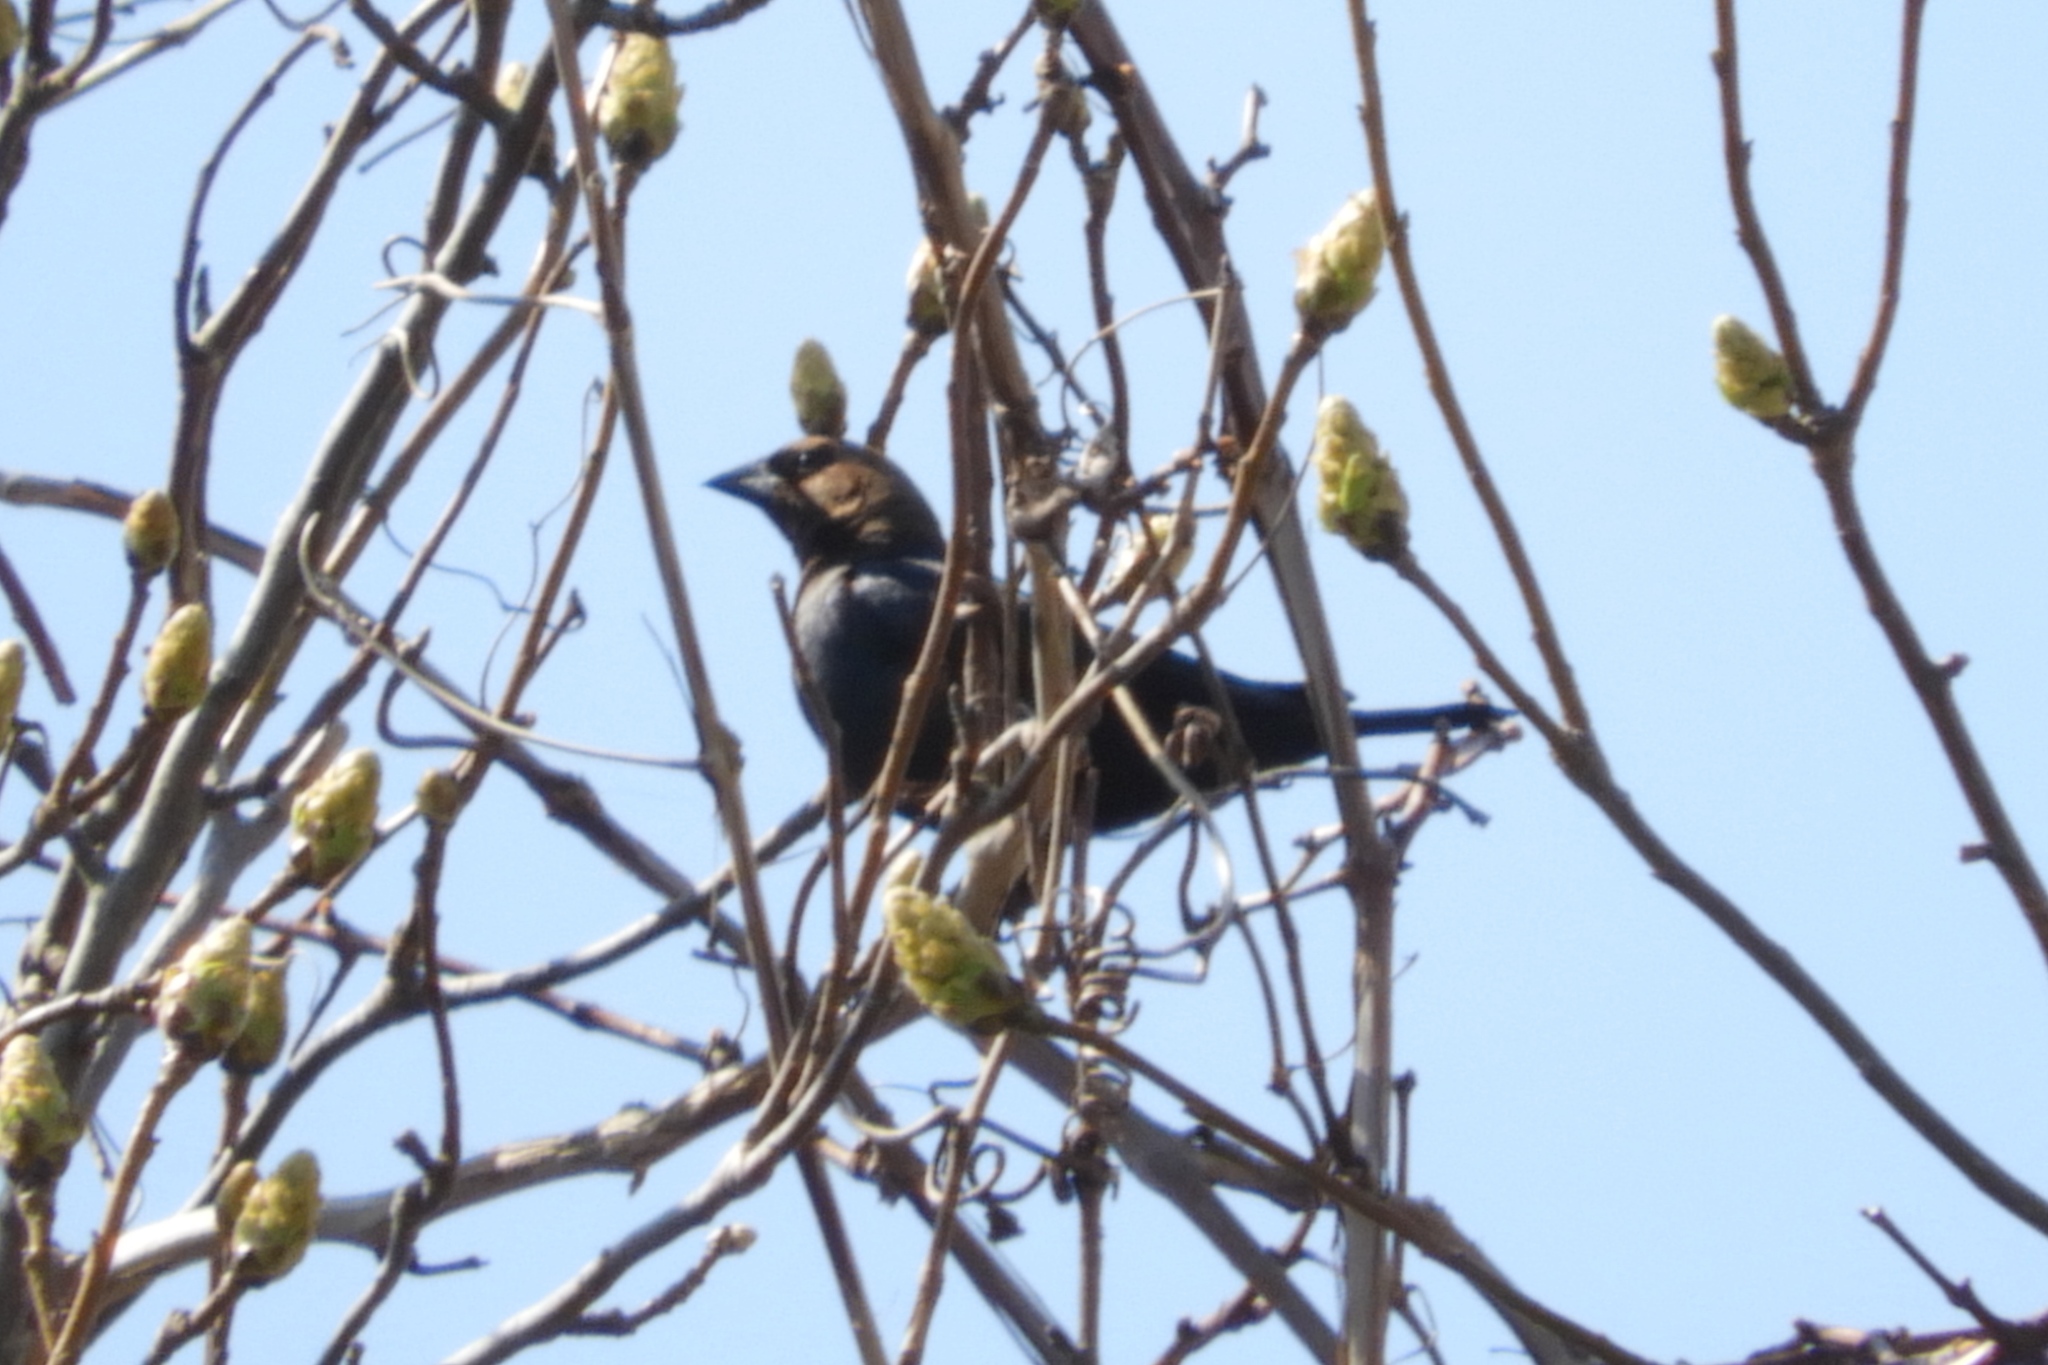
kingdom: Animalia
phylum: Chordata
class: Aves
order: Passeriformes
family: Icteridae
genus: Molothrus
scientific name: Molothrus ater
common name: Brown-headed cowbird
